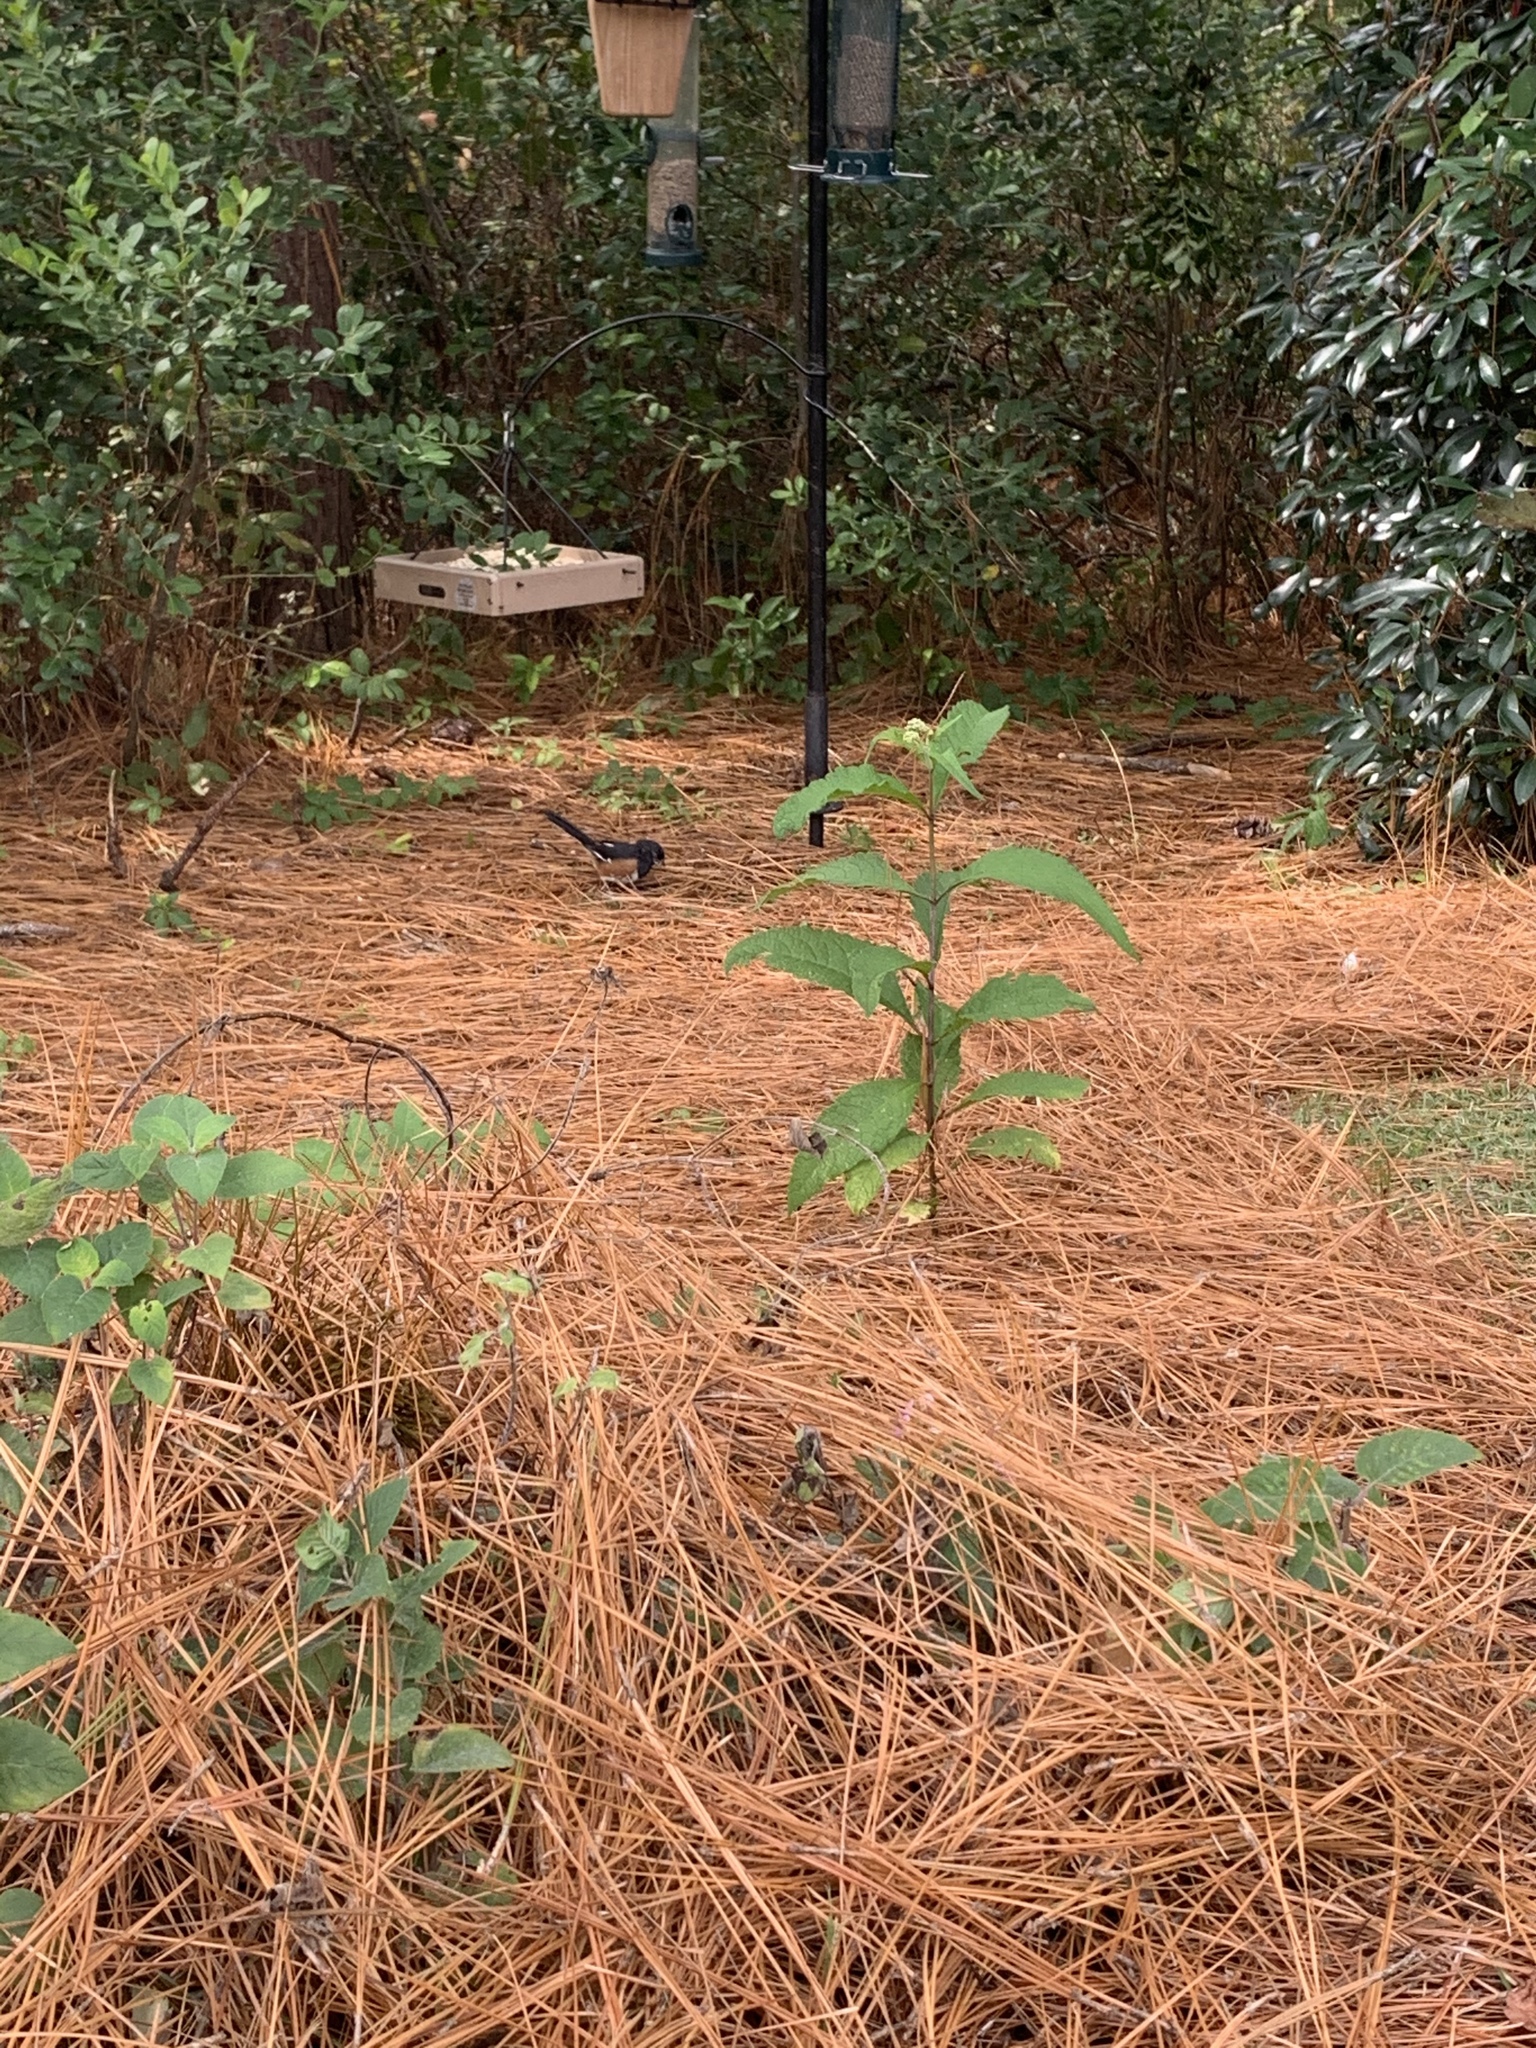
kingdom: Animalia
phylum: Chordata
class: Aves
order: Passeriformes
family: Passerellidae
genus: Pipilo
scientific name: Pipilo erythrophthalmus
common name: Eastern towhee
